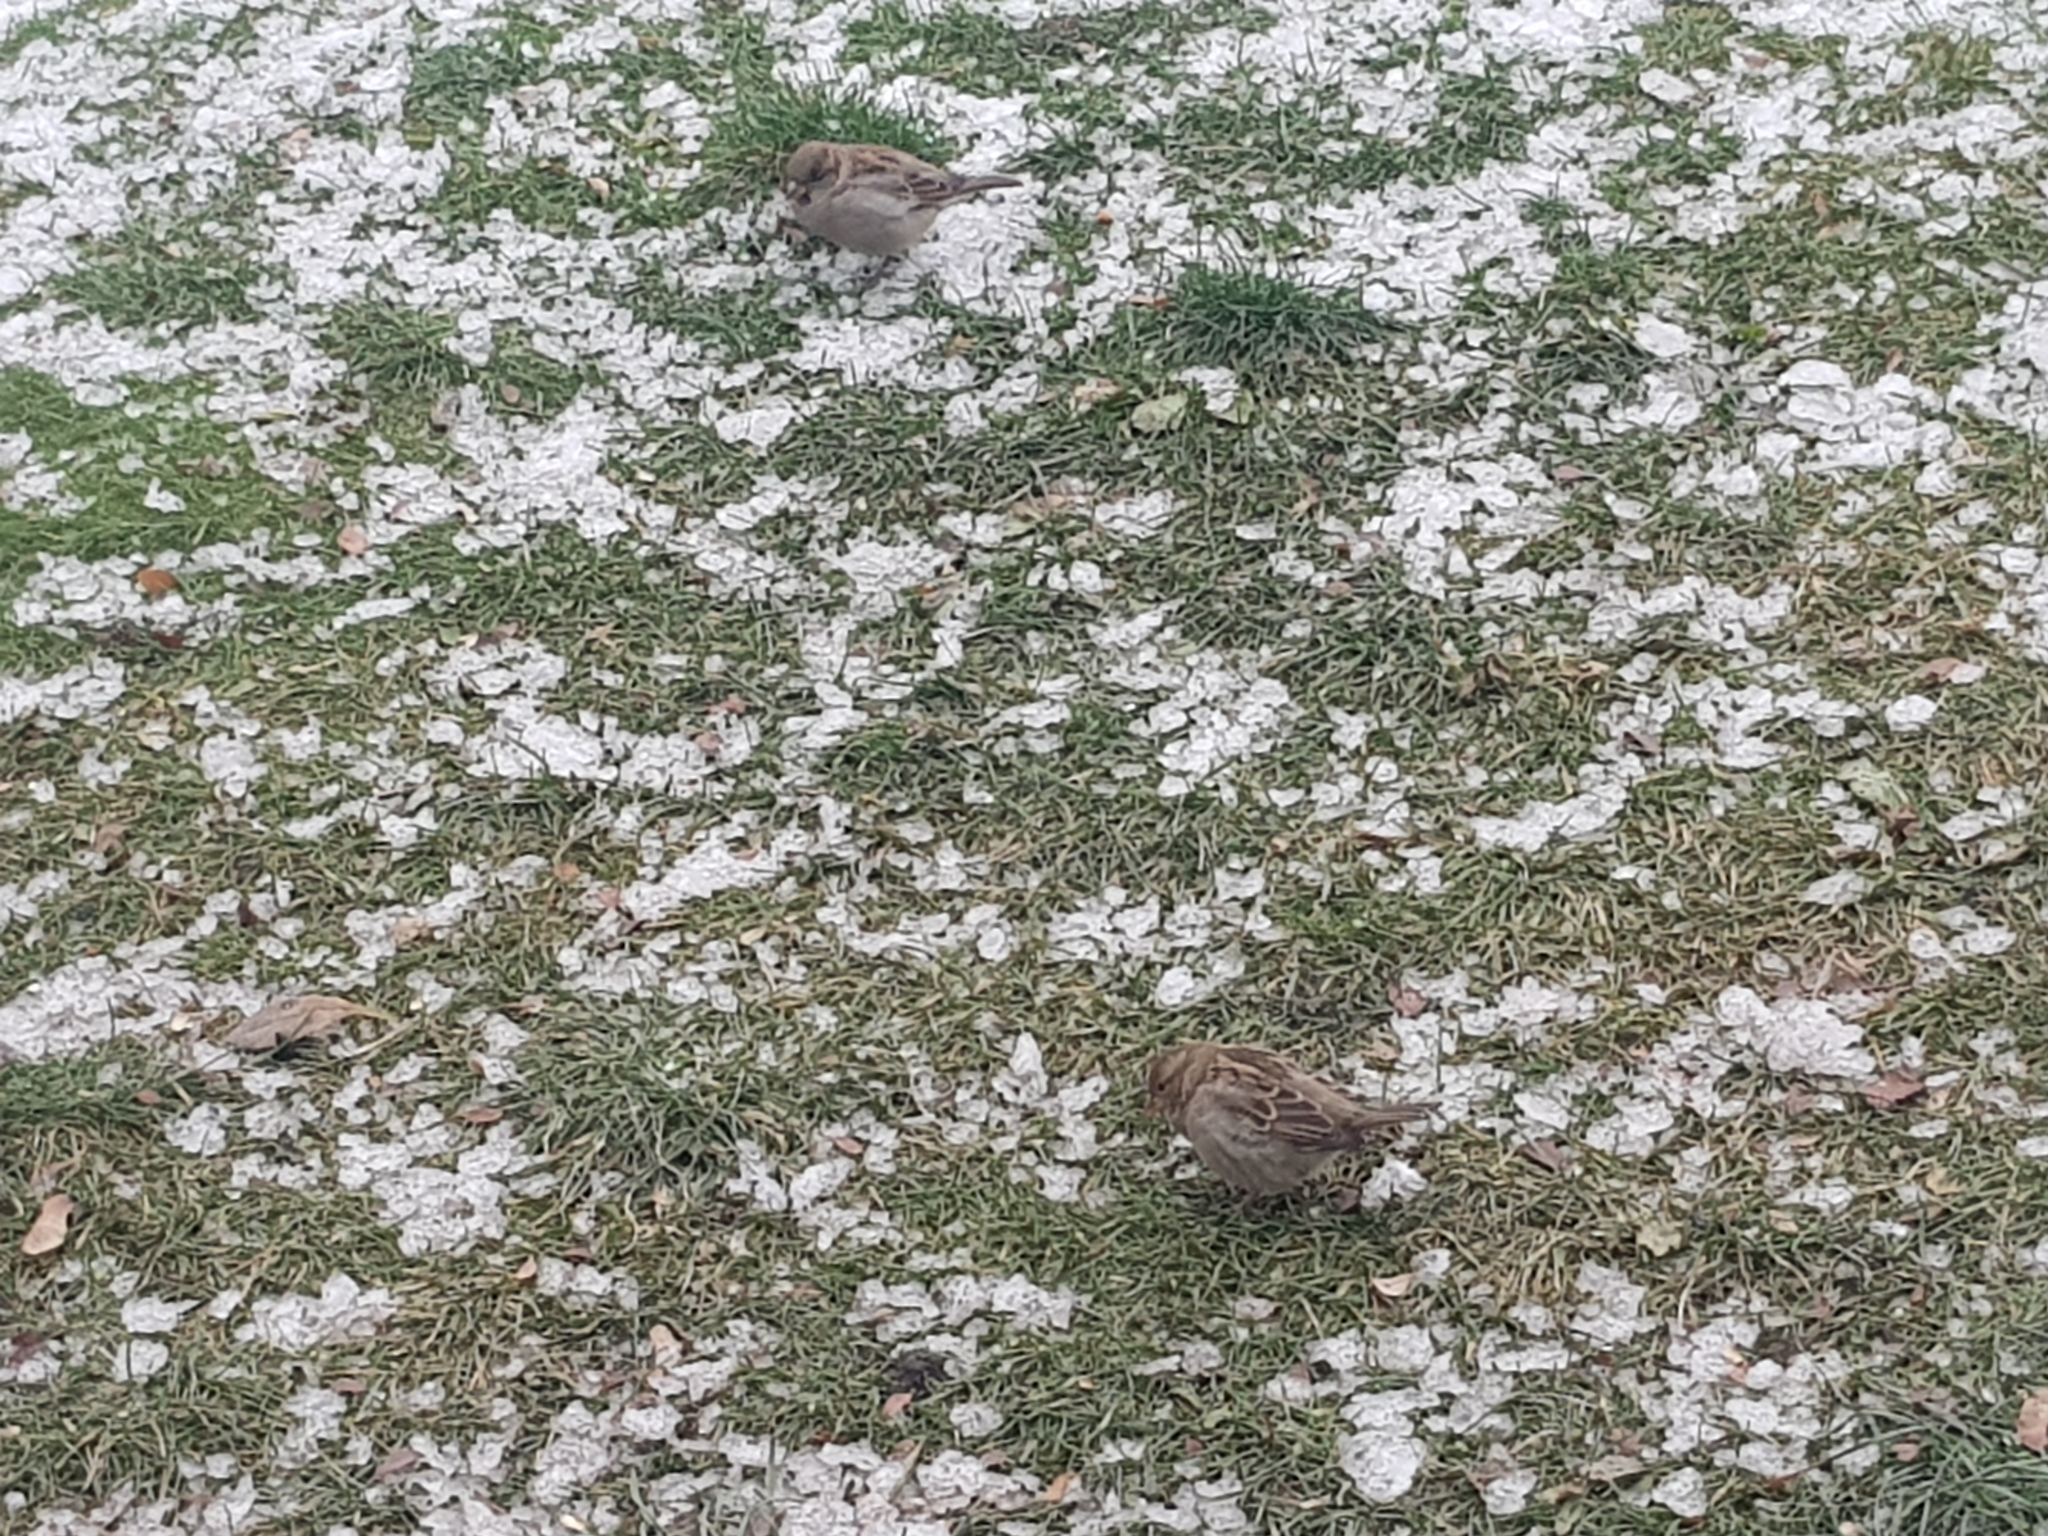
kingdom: Animalia
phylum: Chordata
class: Aves
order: Passeriformes
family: Passeridae
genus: Passer
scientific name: Passer domesticus
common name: House sparrow
